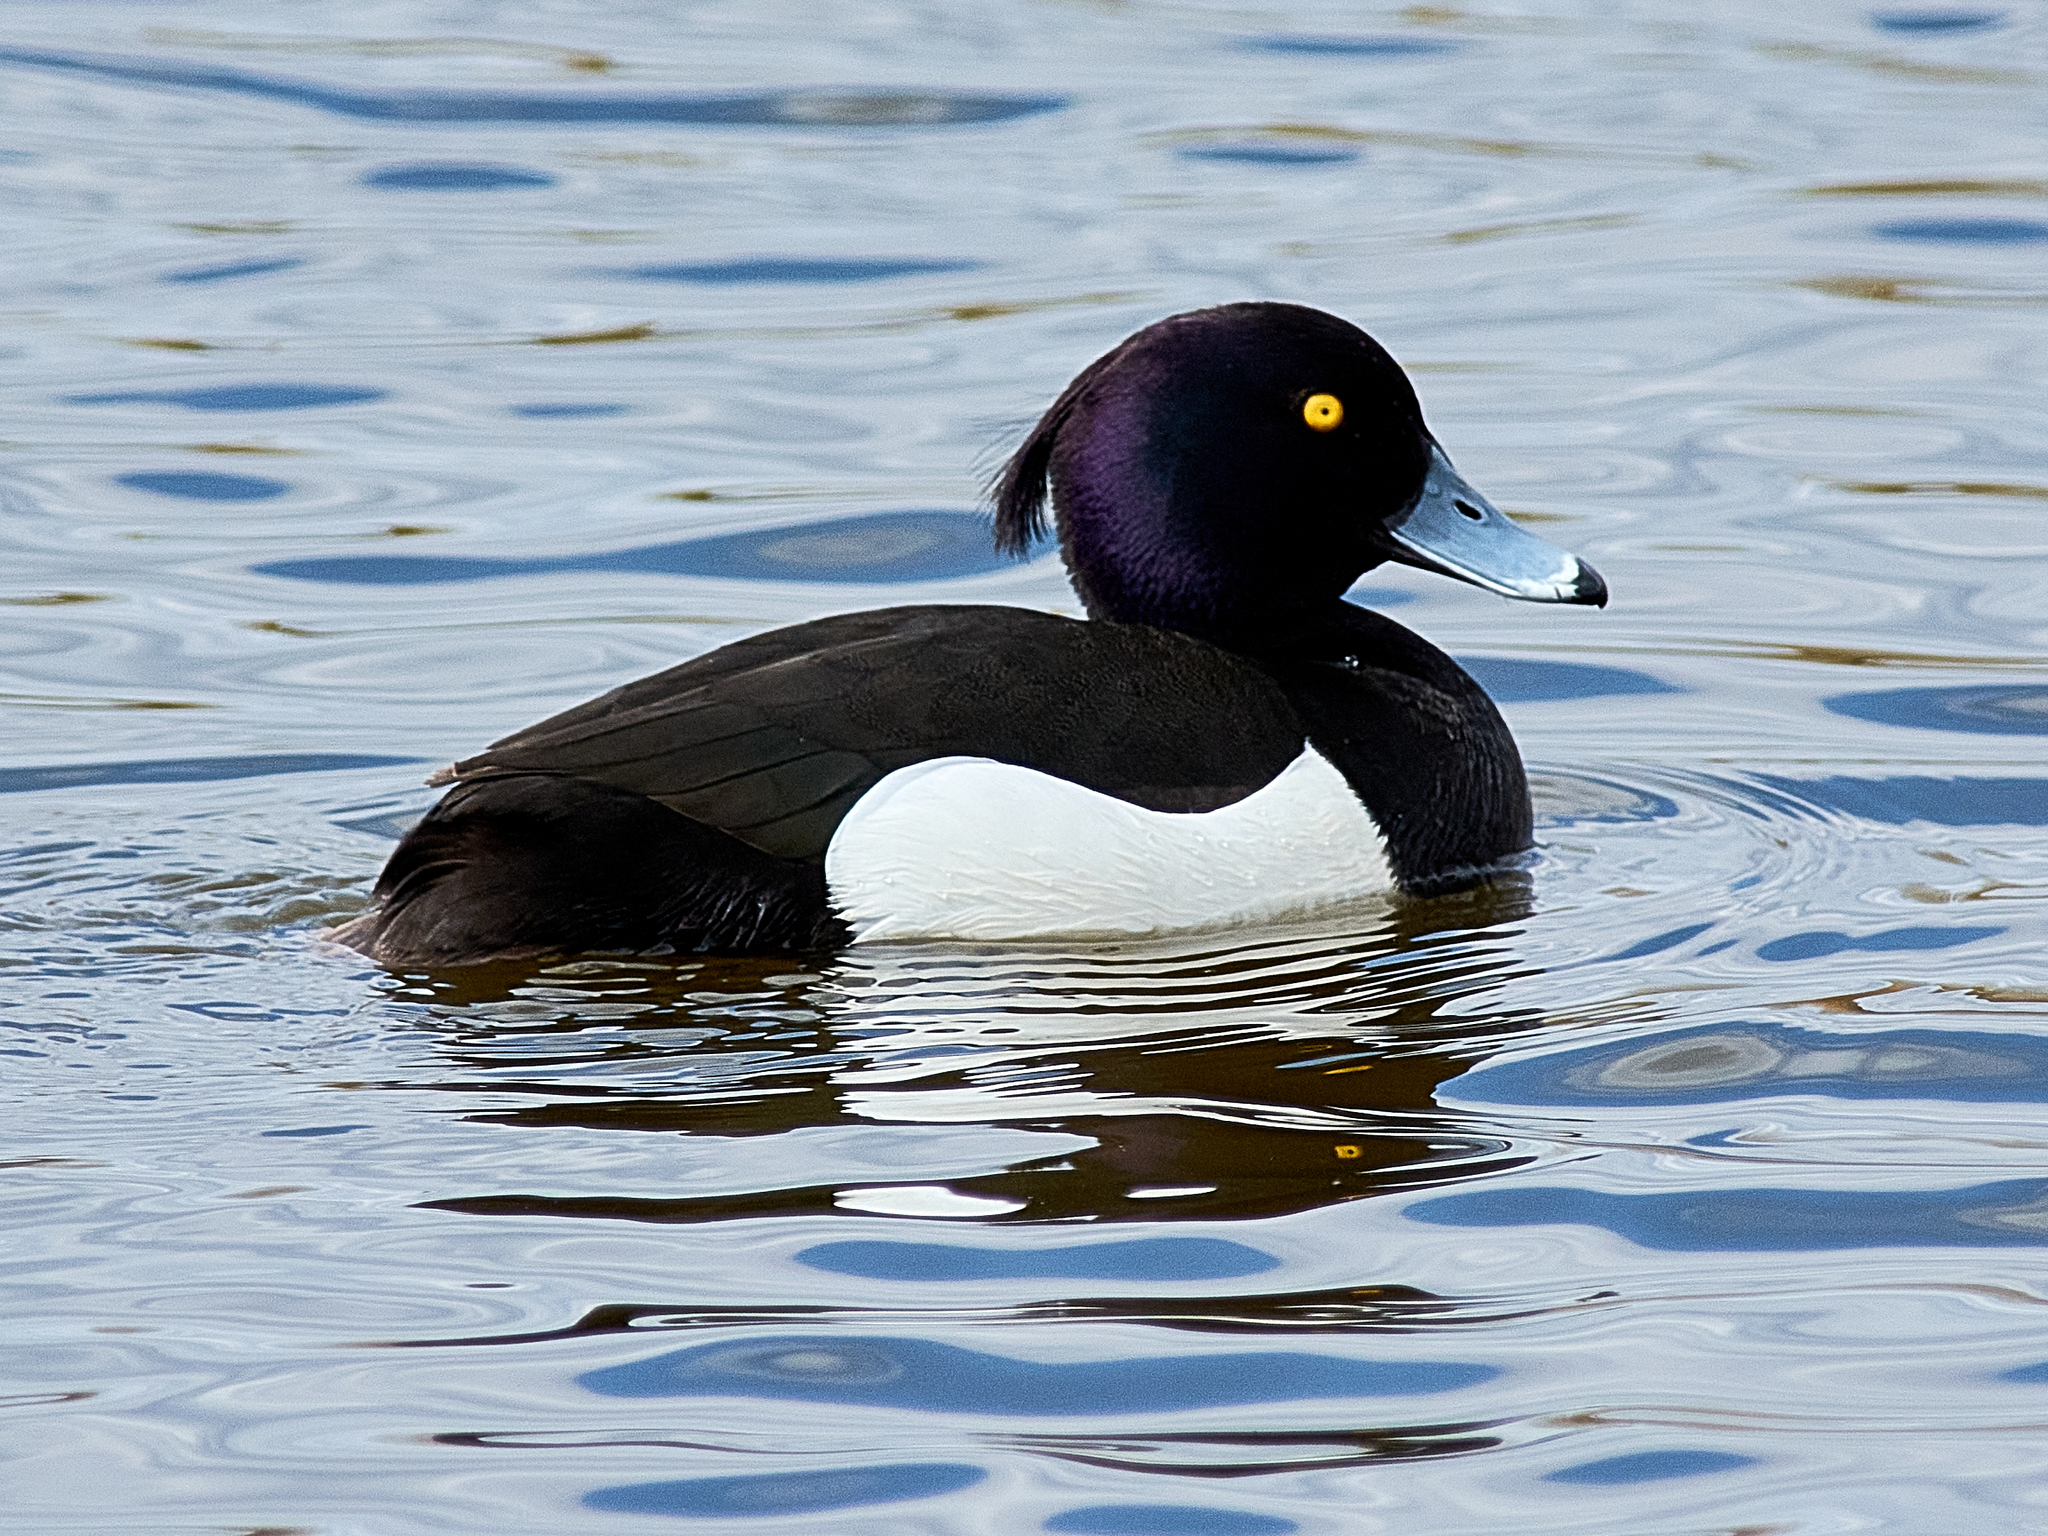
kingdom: Animalia
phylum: Chordata
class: Aves
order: Anseriformes
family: Anatidae
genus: Aythya
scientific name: Aythya fuligula
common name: Tufted duck
